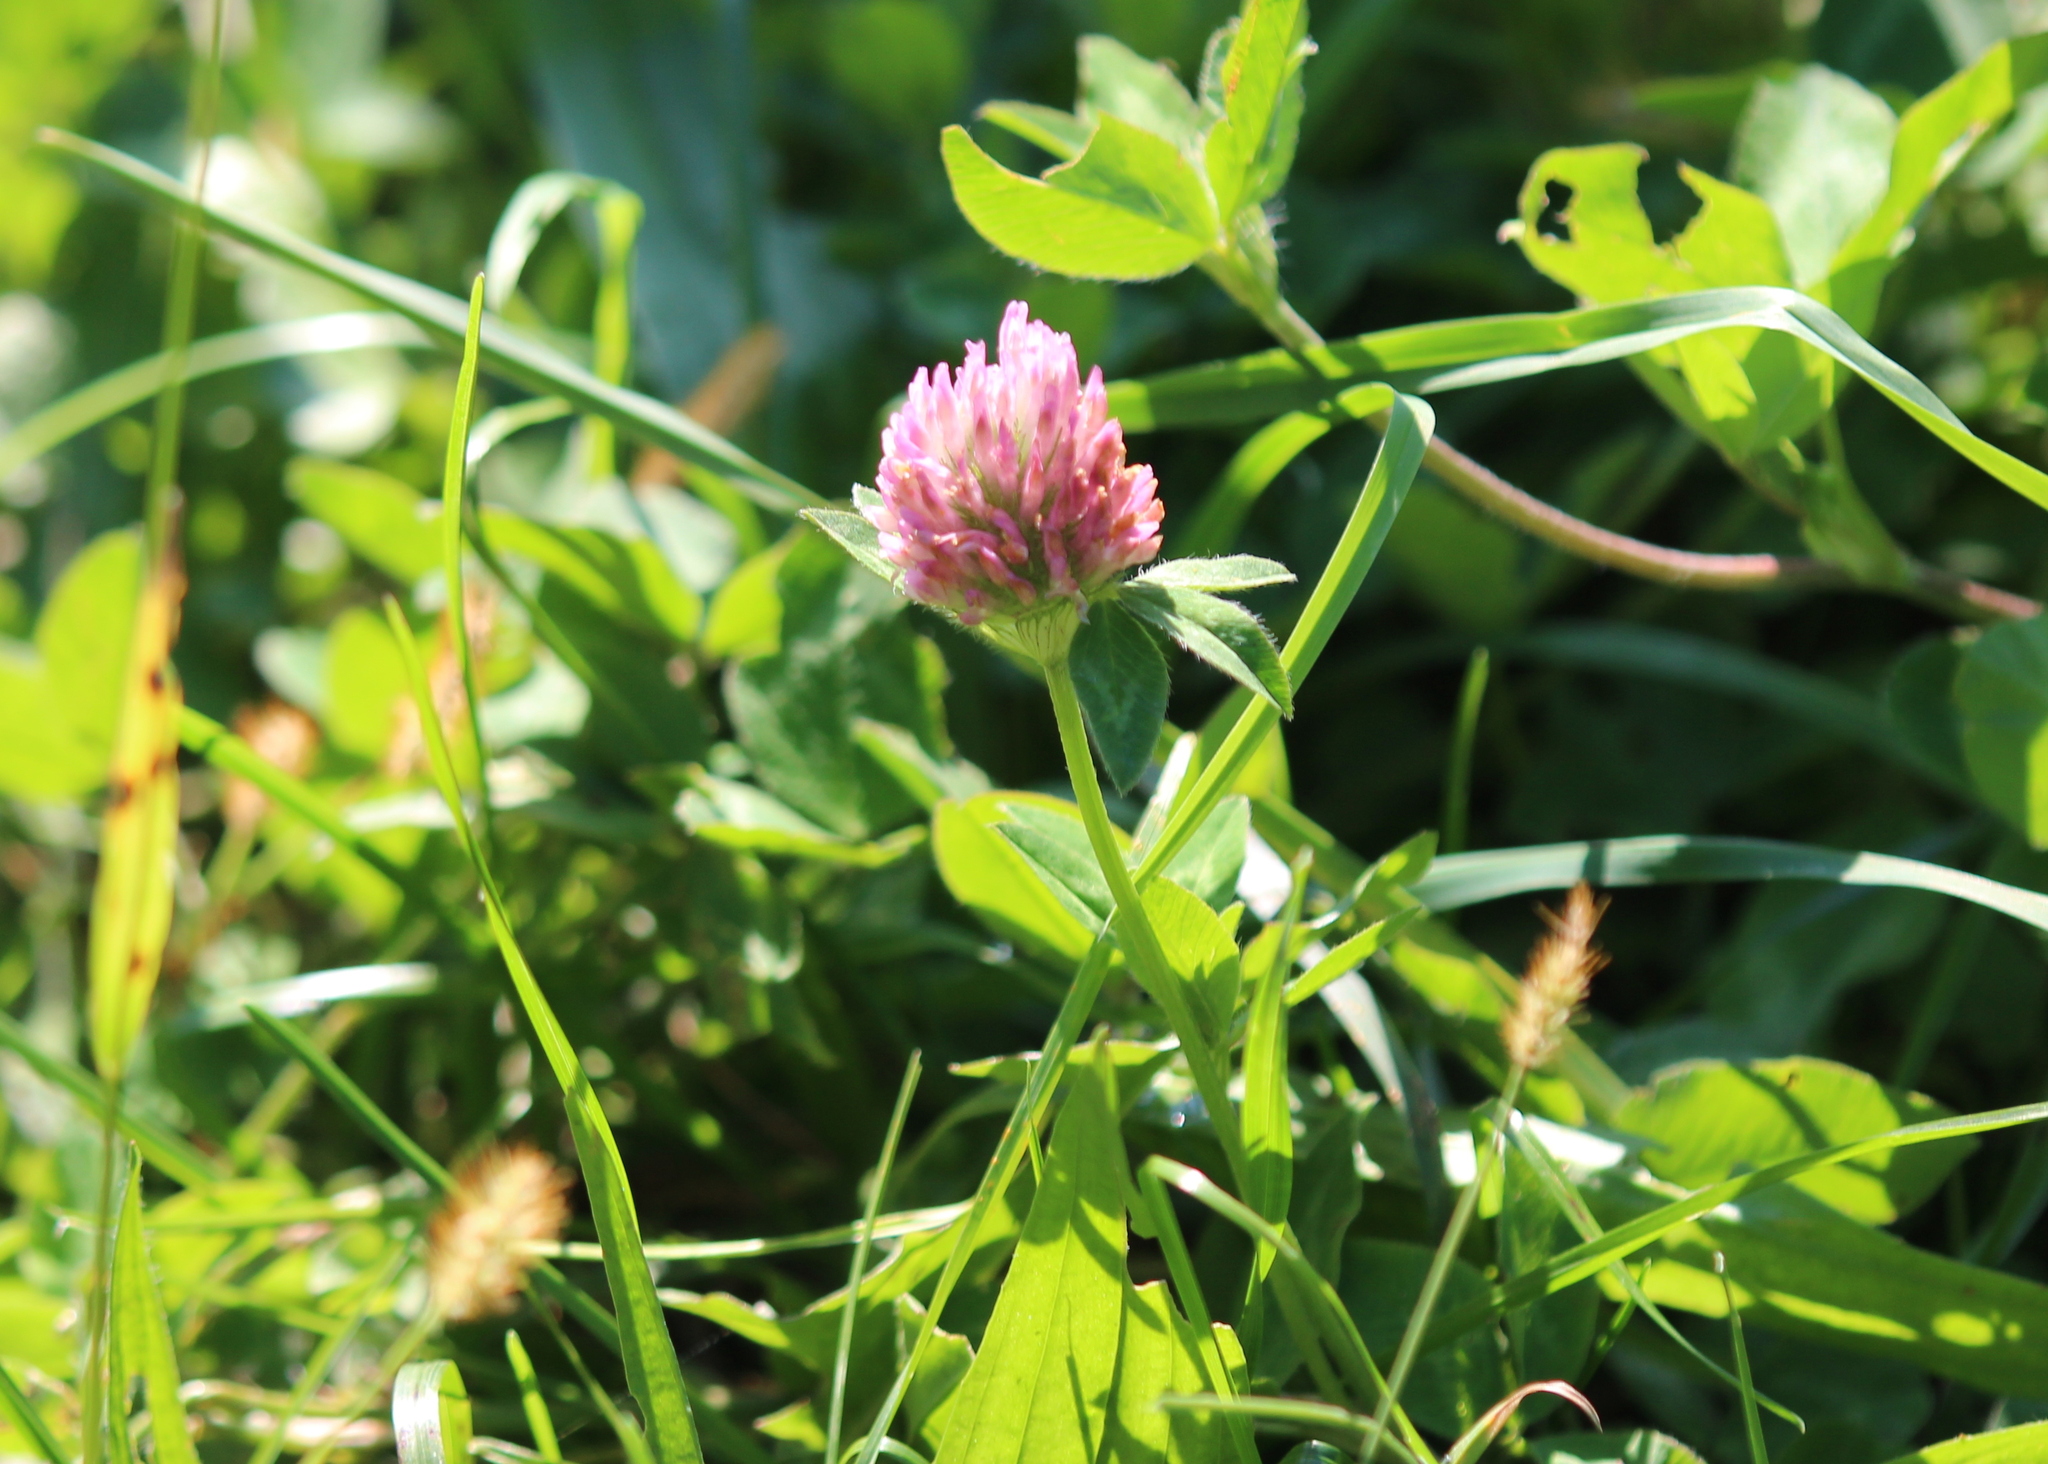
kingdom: Plantae
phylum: Tracheophyta
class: Magnoliopsida
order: Fabales
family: Fabaceae
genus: Trifolium
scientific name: Trifolium pratense
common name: Red clover
